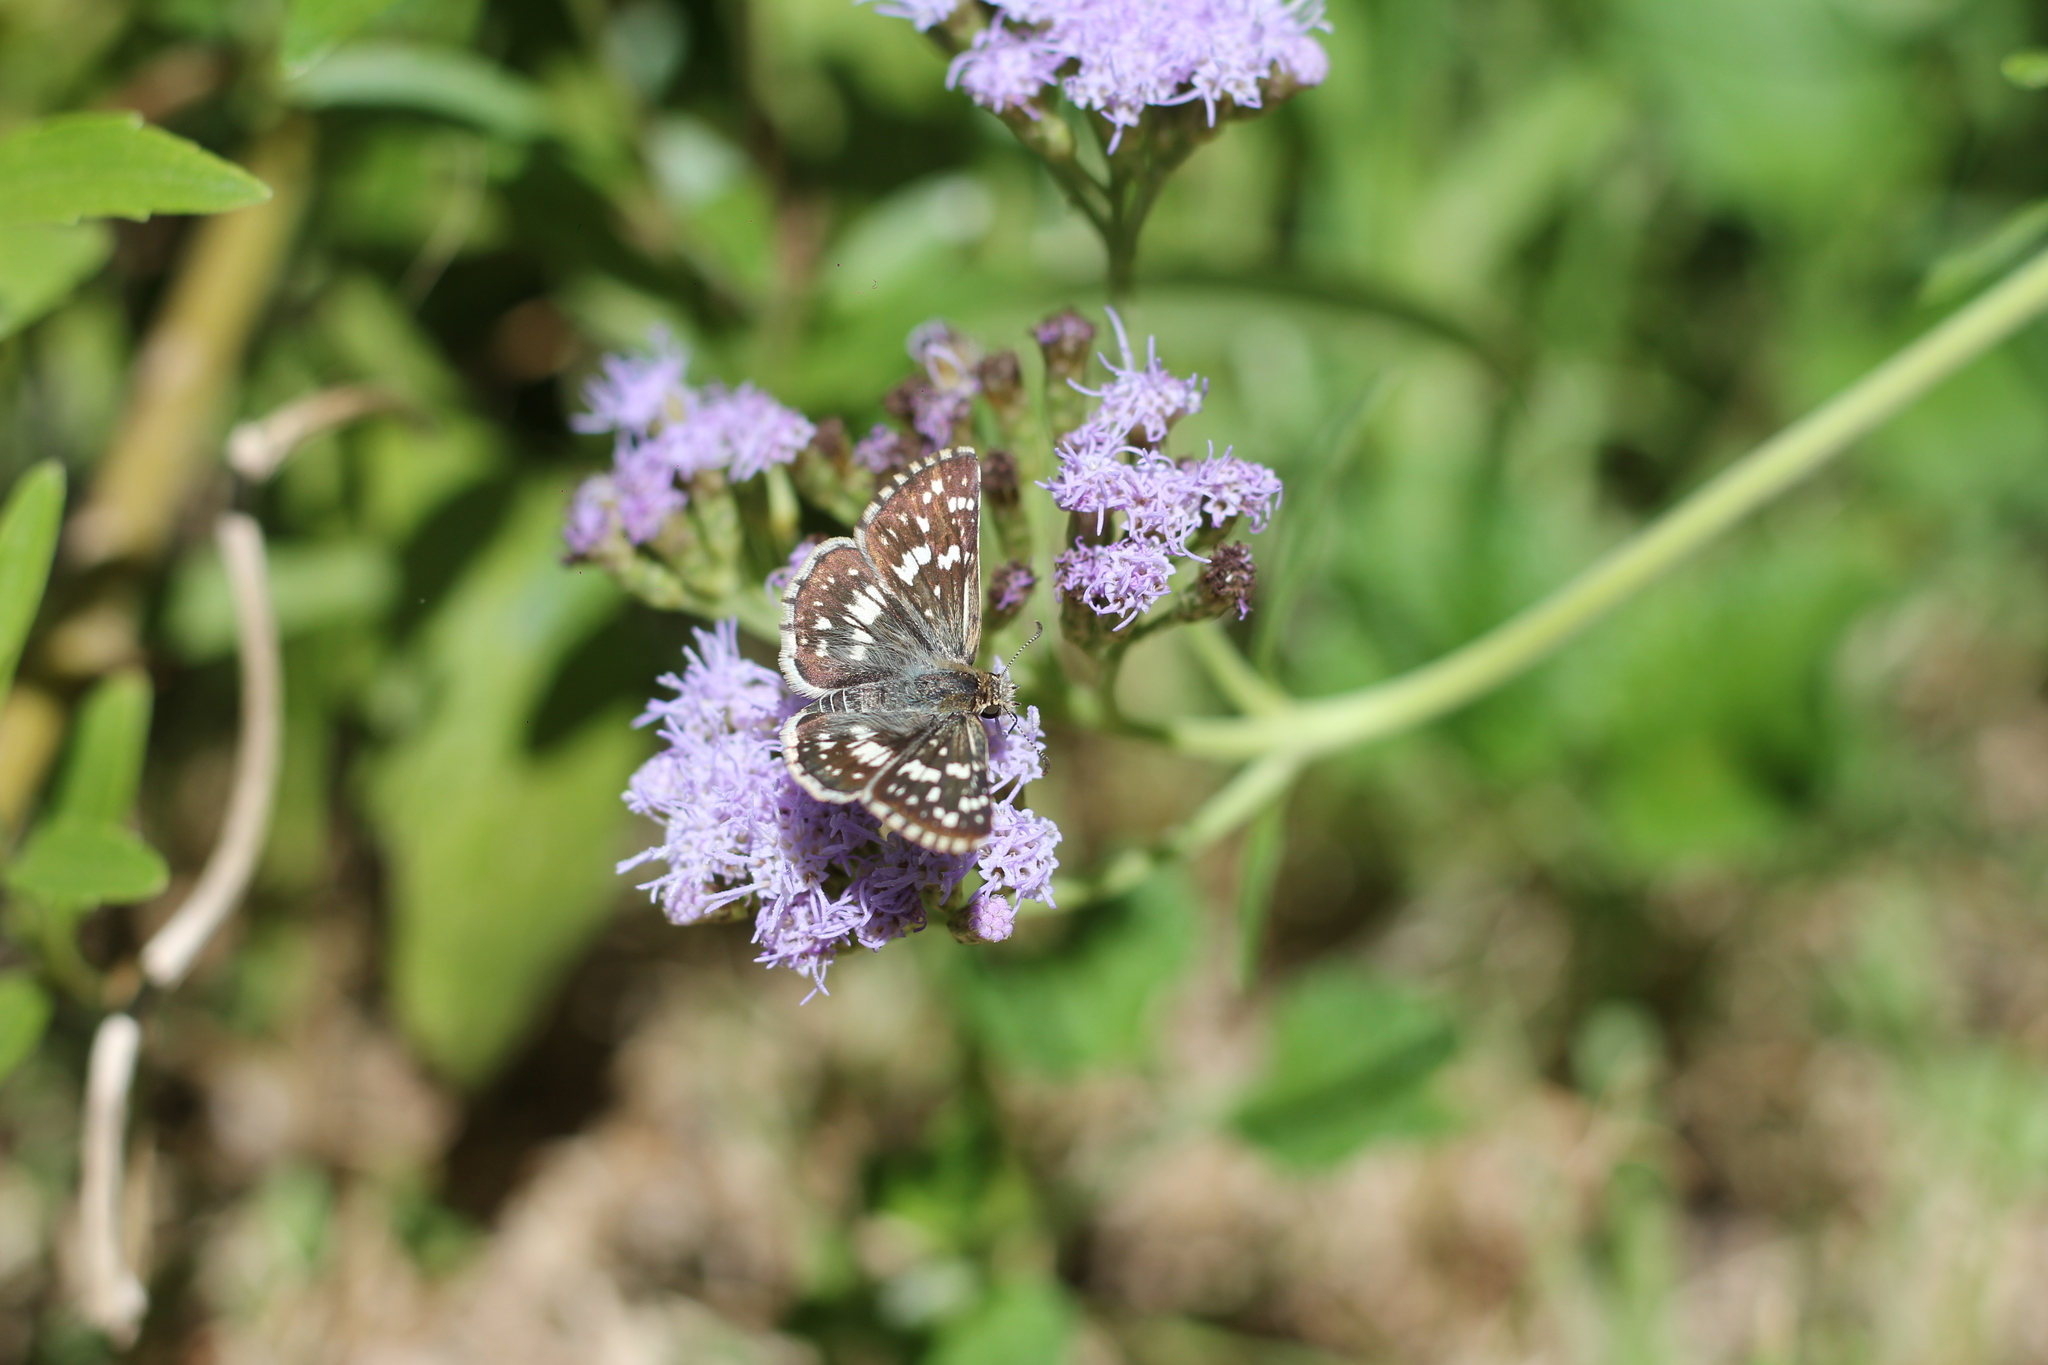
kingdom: Animalia
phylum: Arthropoda
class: Insecta
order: Lepidoptera
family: Hesperiidae
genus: Burnsius
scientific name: Burnsius orcynoides
